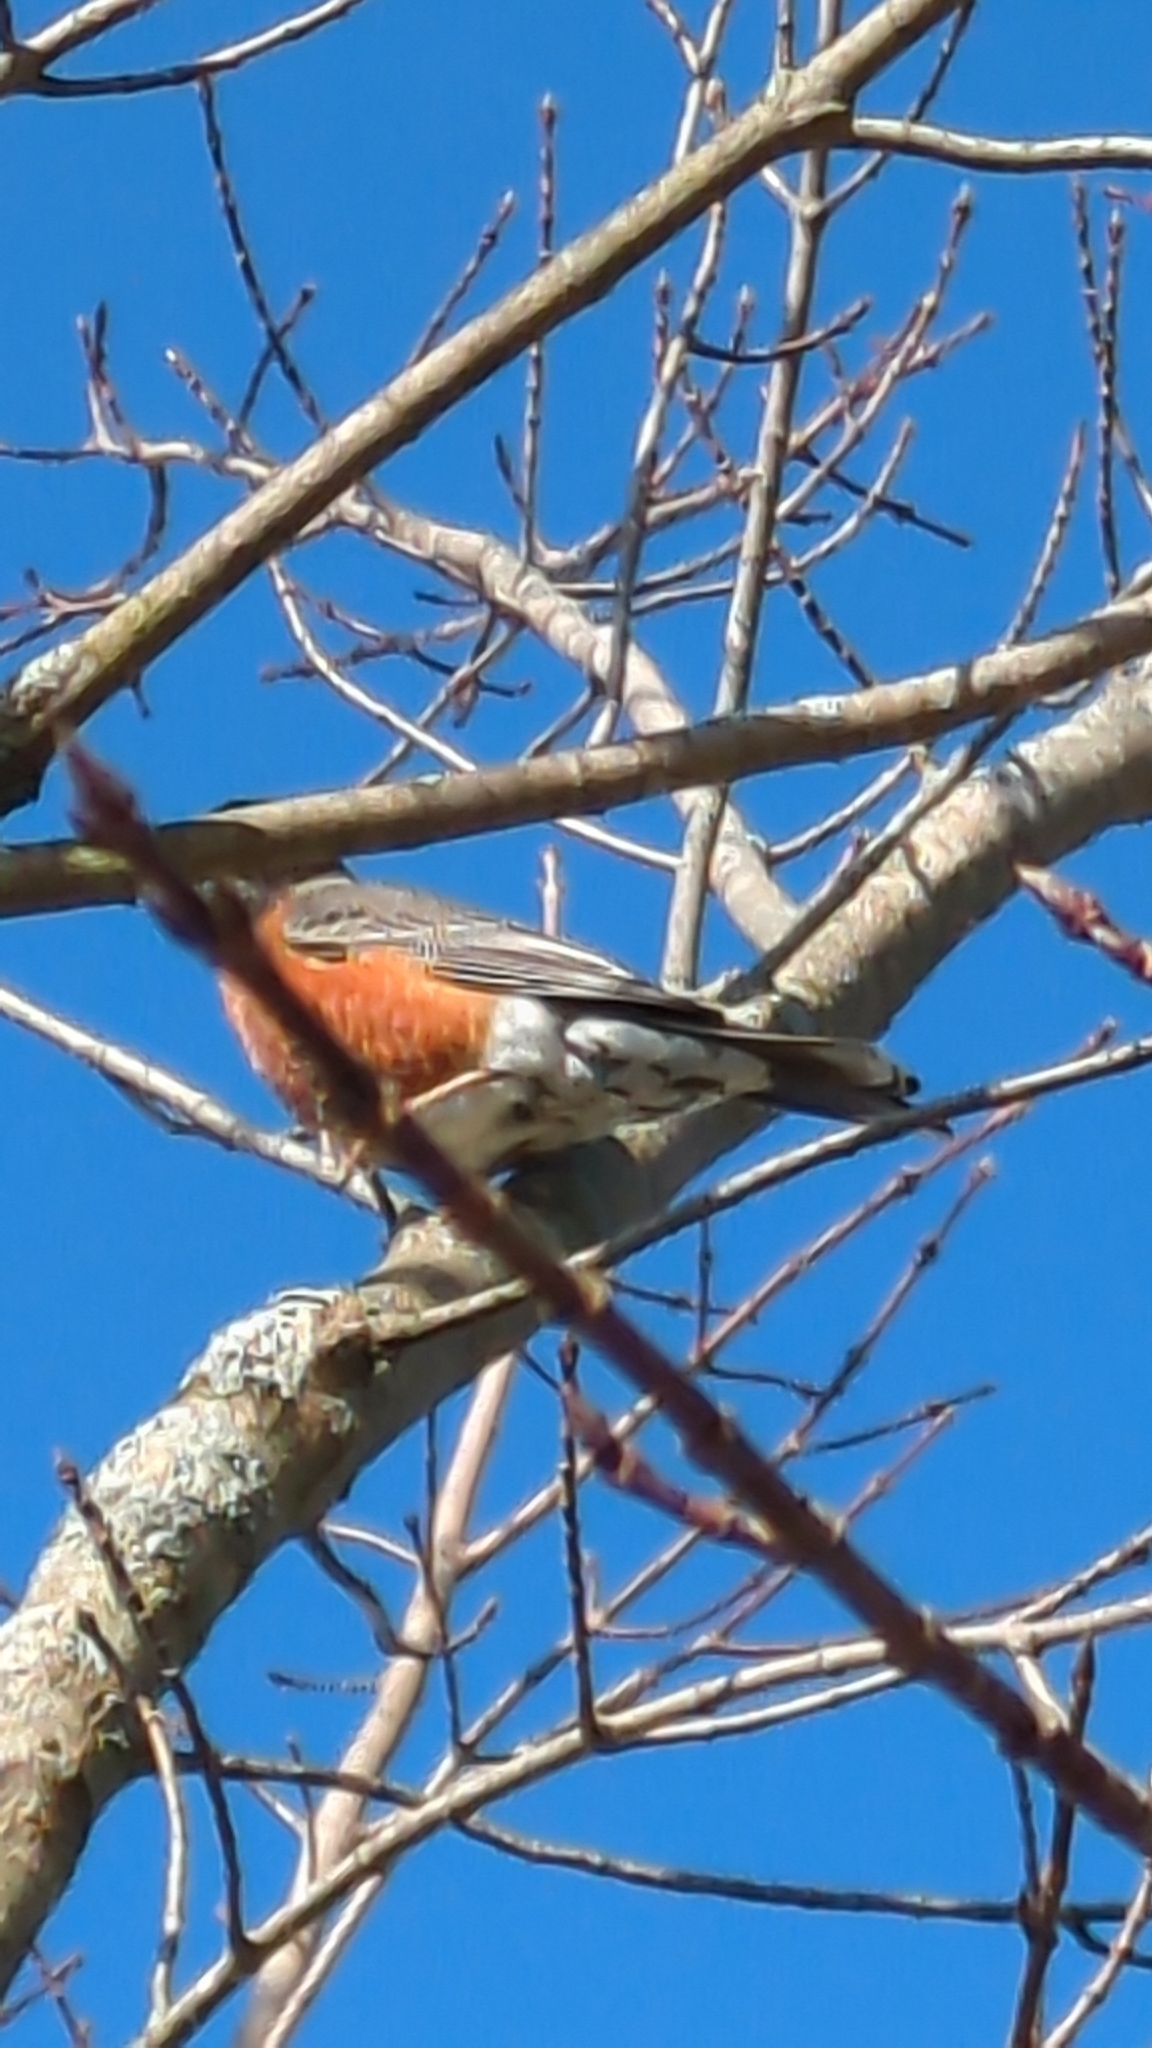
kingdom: Animalia
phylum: Chordata
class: Aves
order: Passeriformes
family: Turdidae
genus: Turdus
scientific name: Turdus migratorius
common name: American robin
